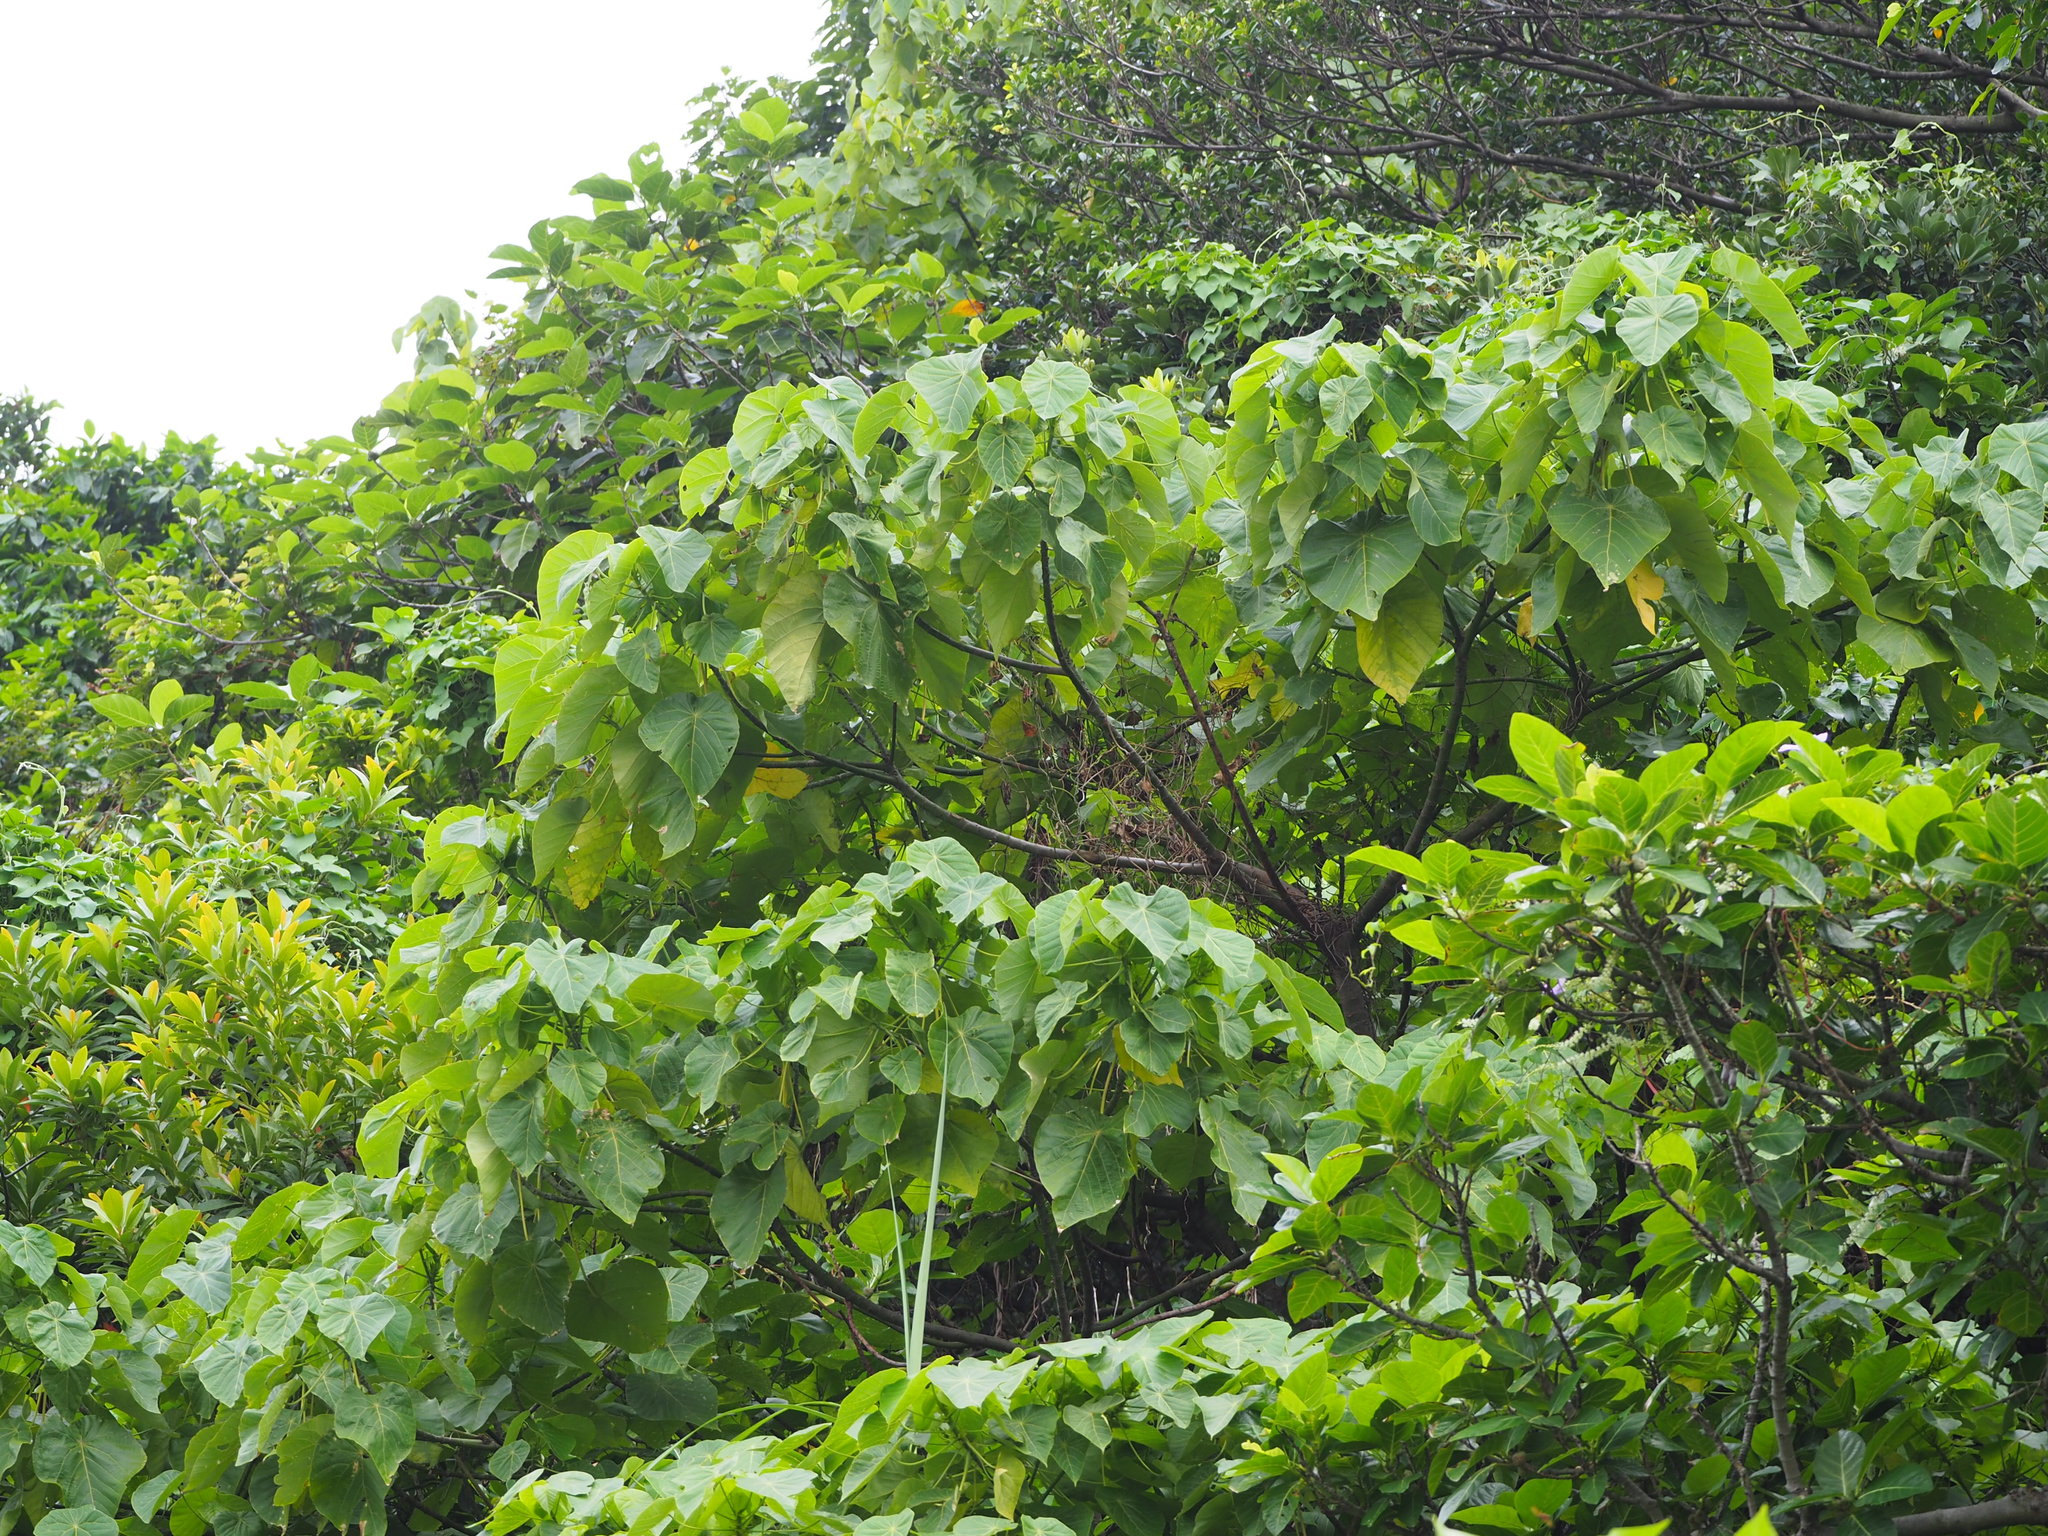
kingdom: Plantae
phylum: Tracheophyta
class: Magnoliopsida
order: Malpighiales
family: Euphorbiaceae
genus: Macaranga
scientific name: Macaranga tanarius
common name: Parasol leaf tree
